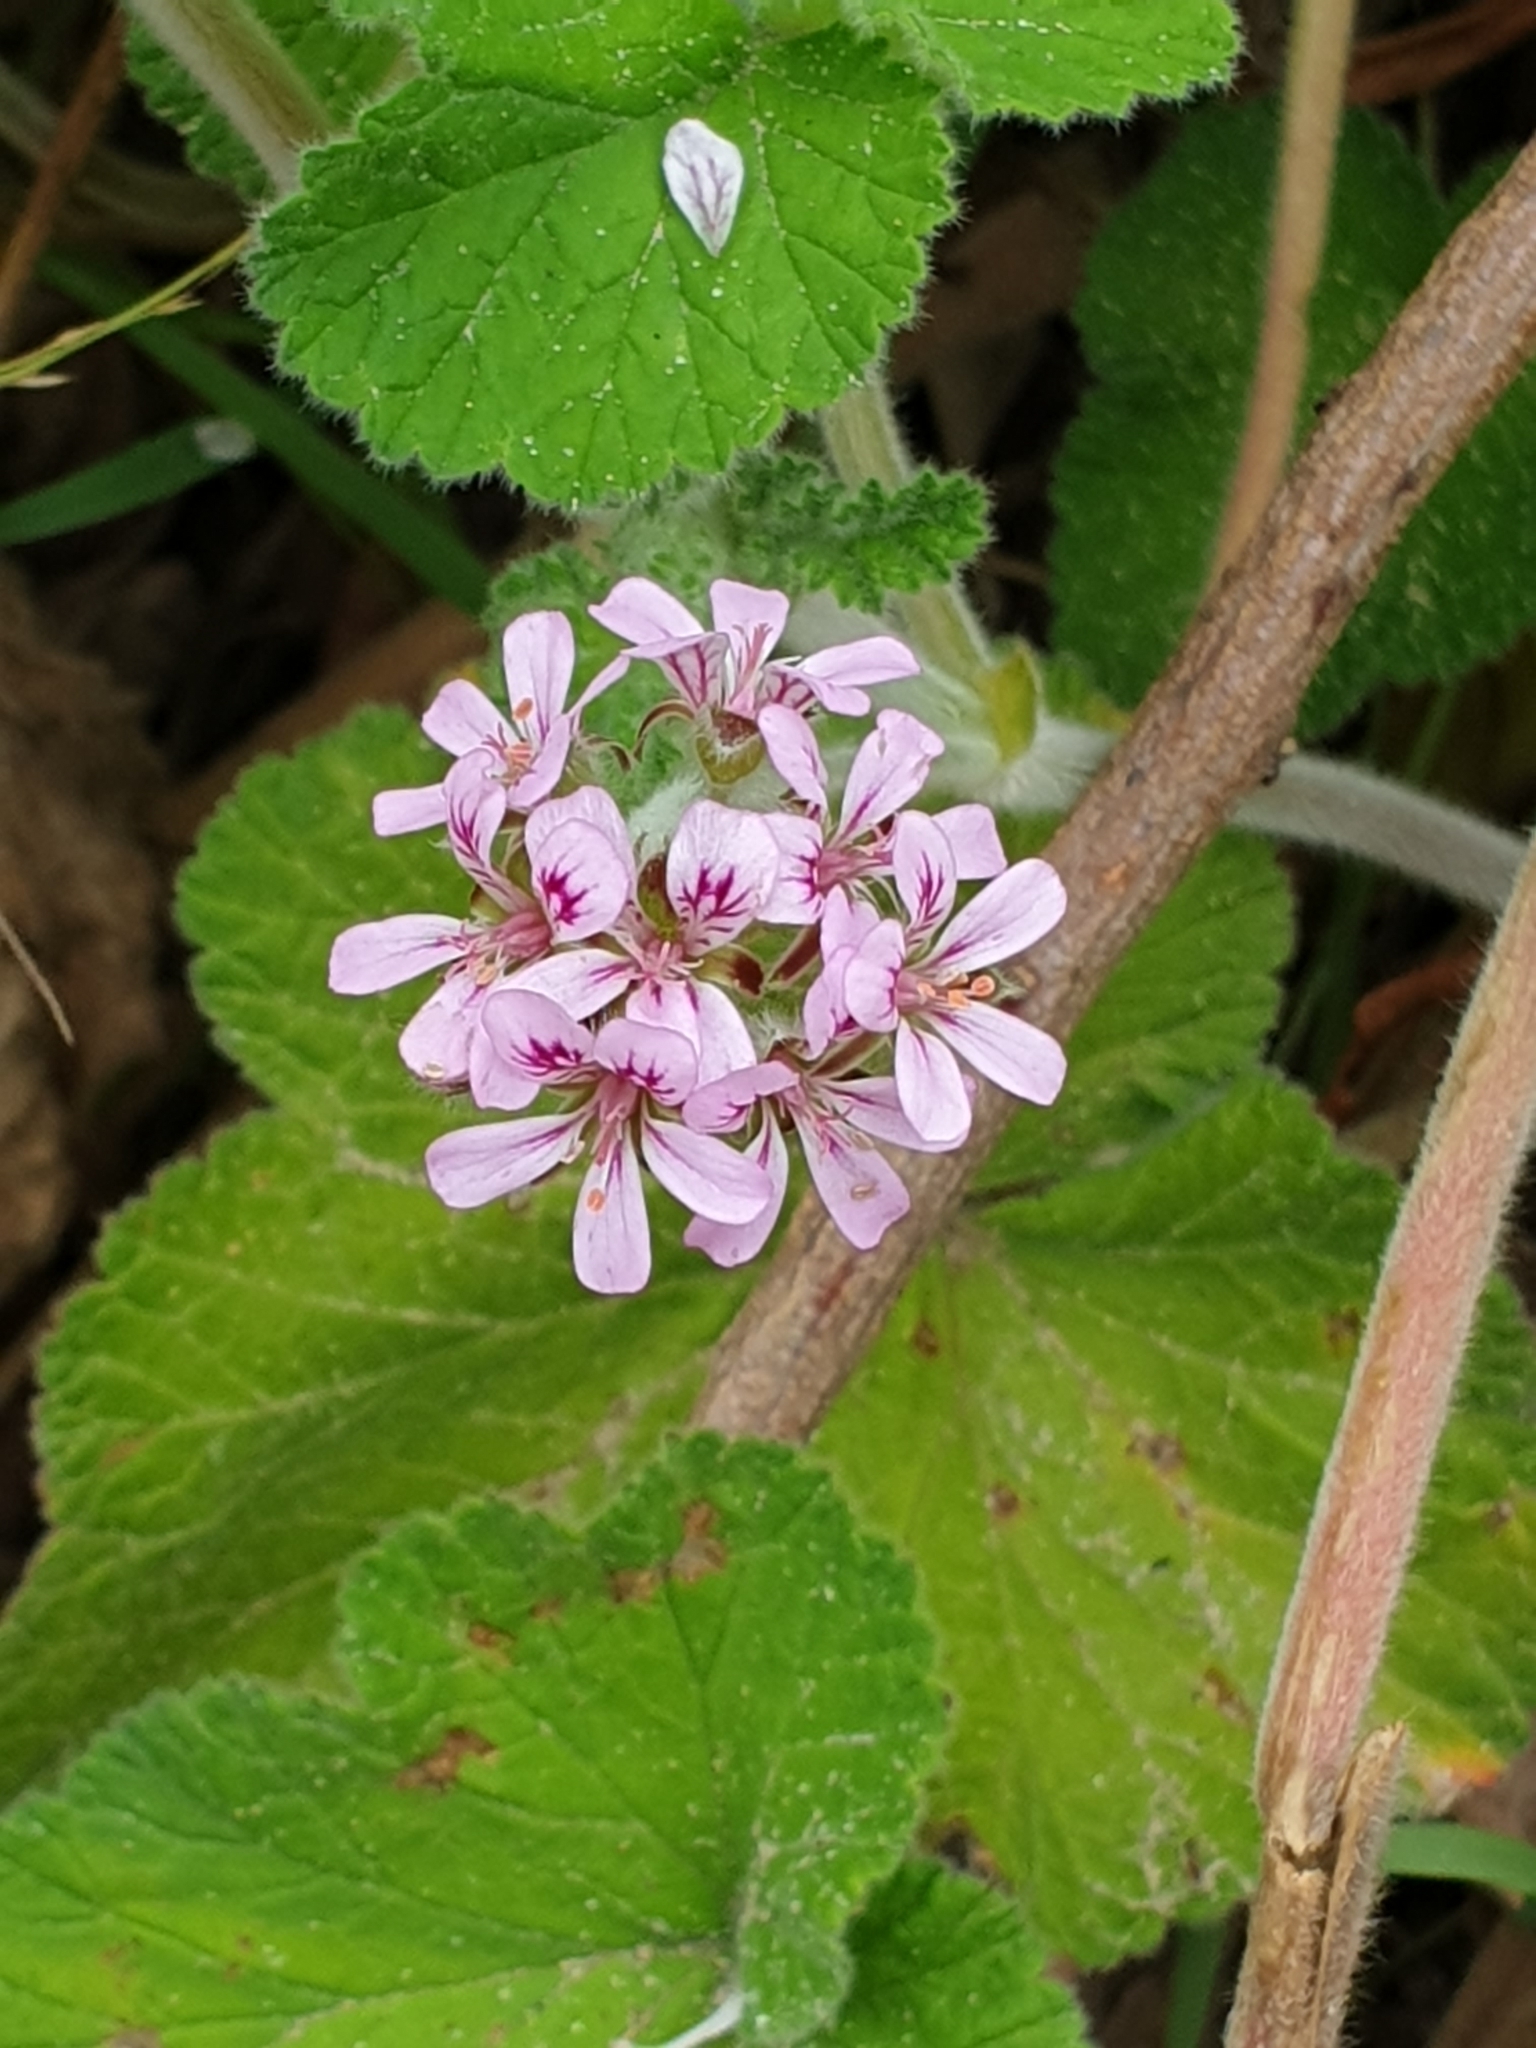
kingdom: Plantae
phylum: Tracheophyta
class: Magnoliopsida
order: Geraniales
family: Geraniaceae
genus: Pelargonium
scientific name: Pelargonium australe
